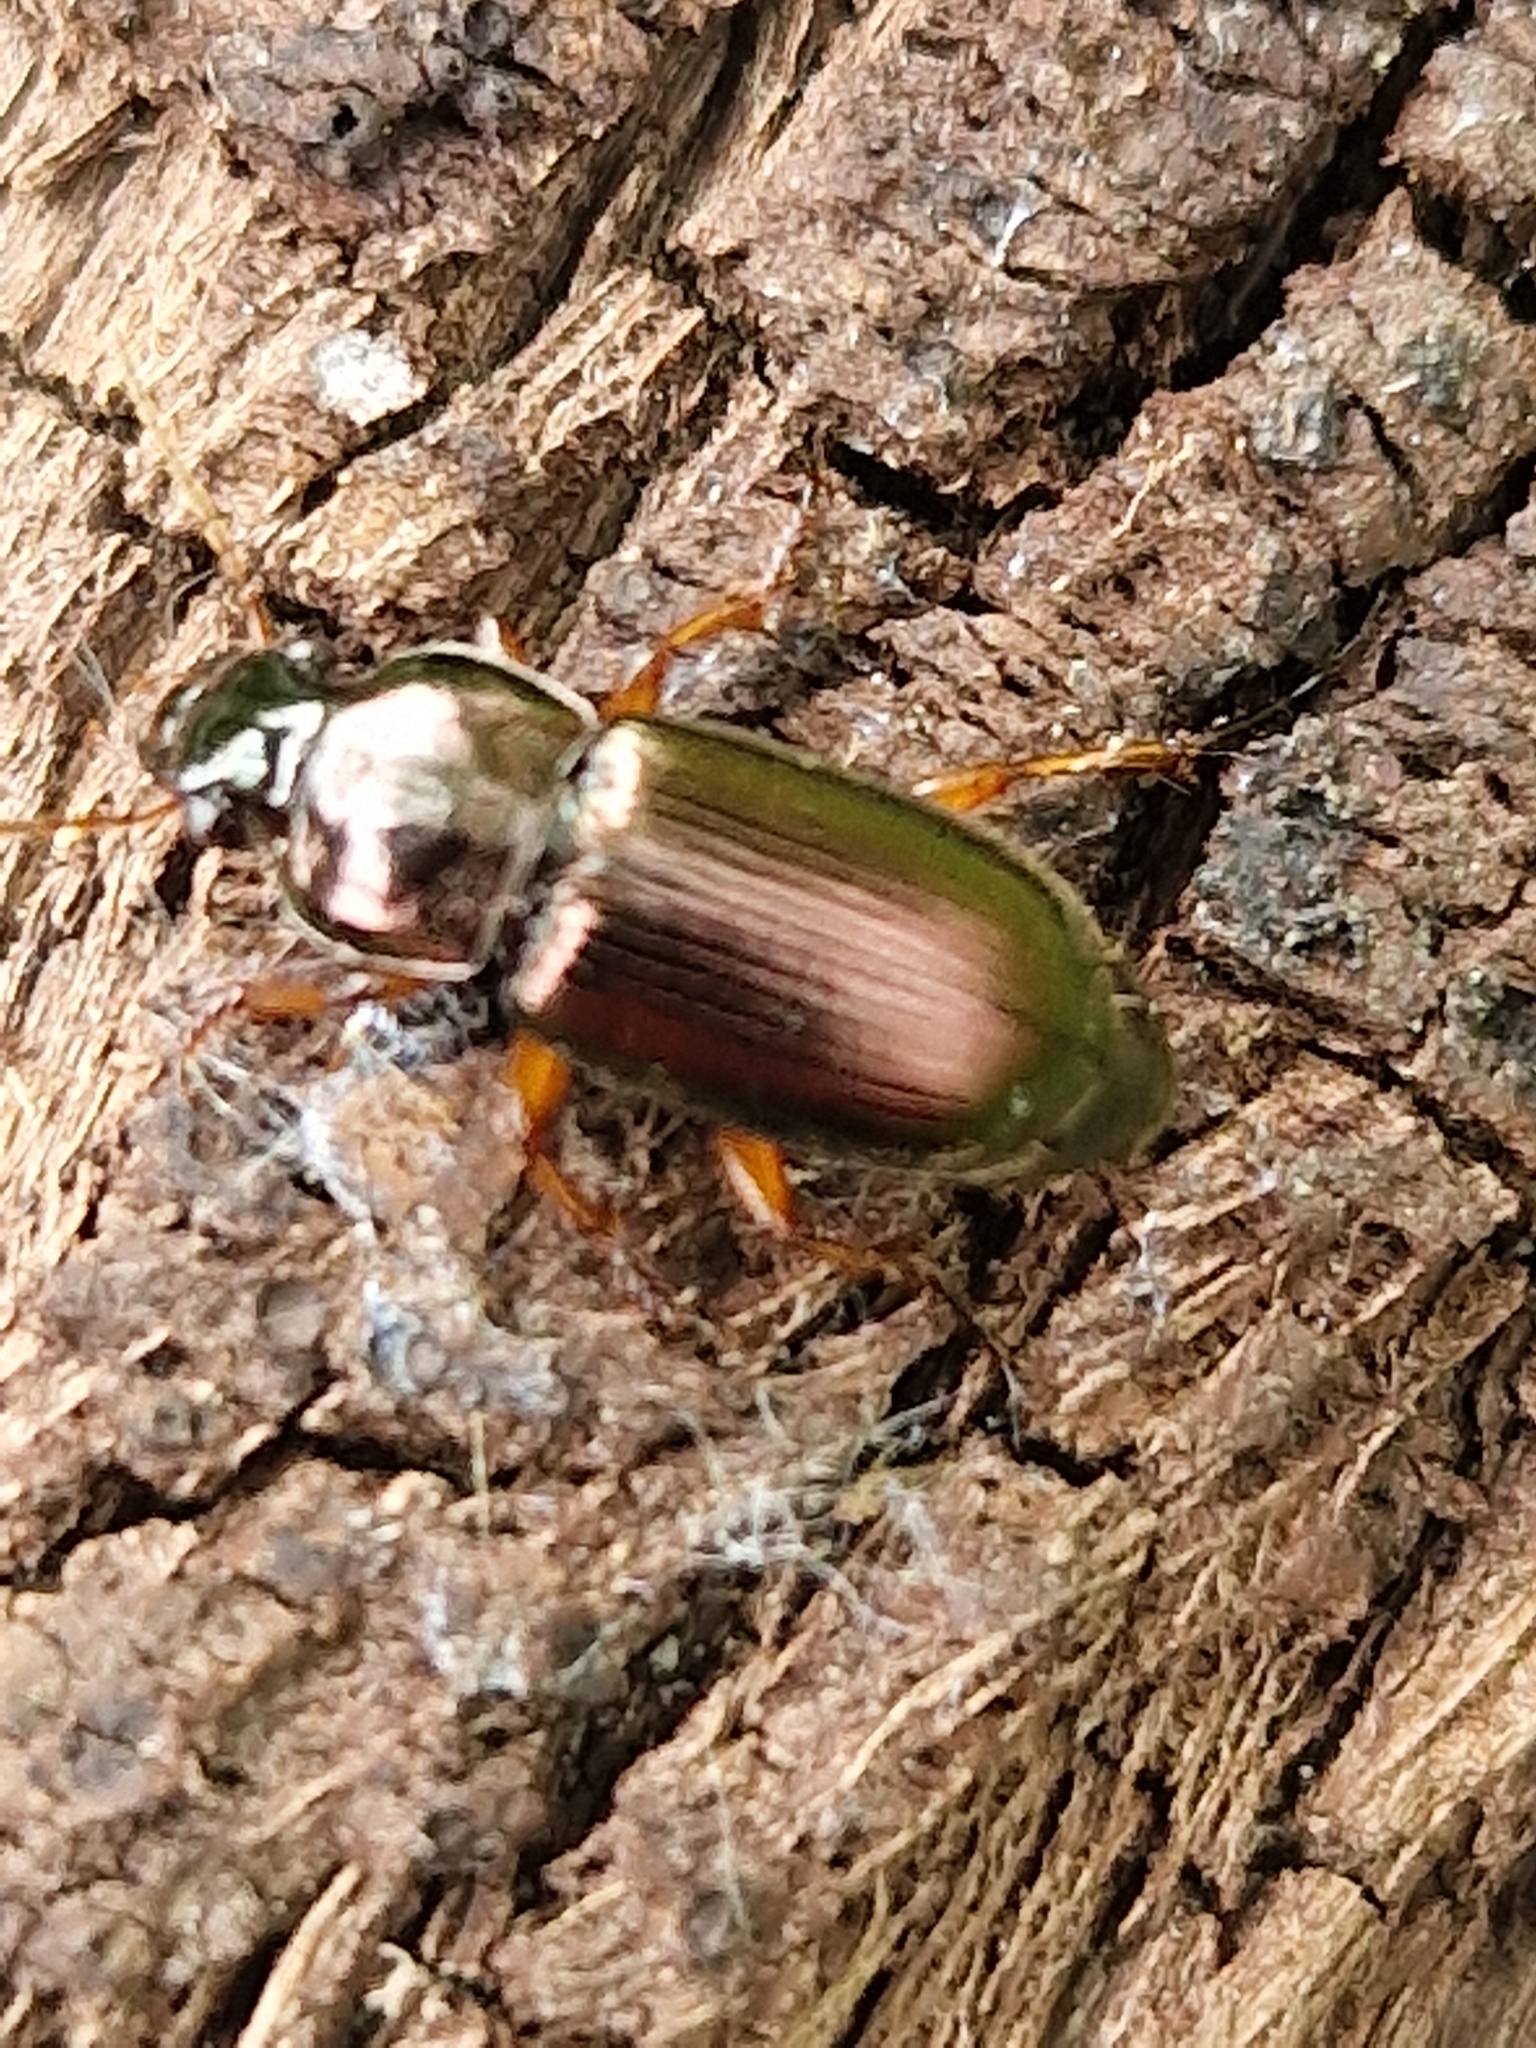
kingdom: Animalia
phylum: Arthropoda
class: Insecta
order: Coleoptera
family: Carabidae
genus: Harpalus
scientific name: Harpalus affinis
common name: Polychrome harp ground beetle
